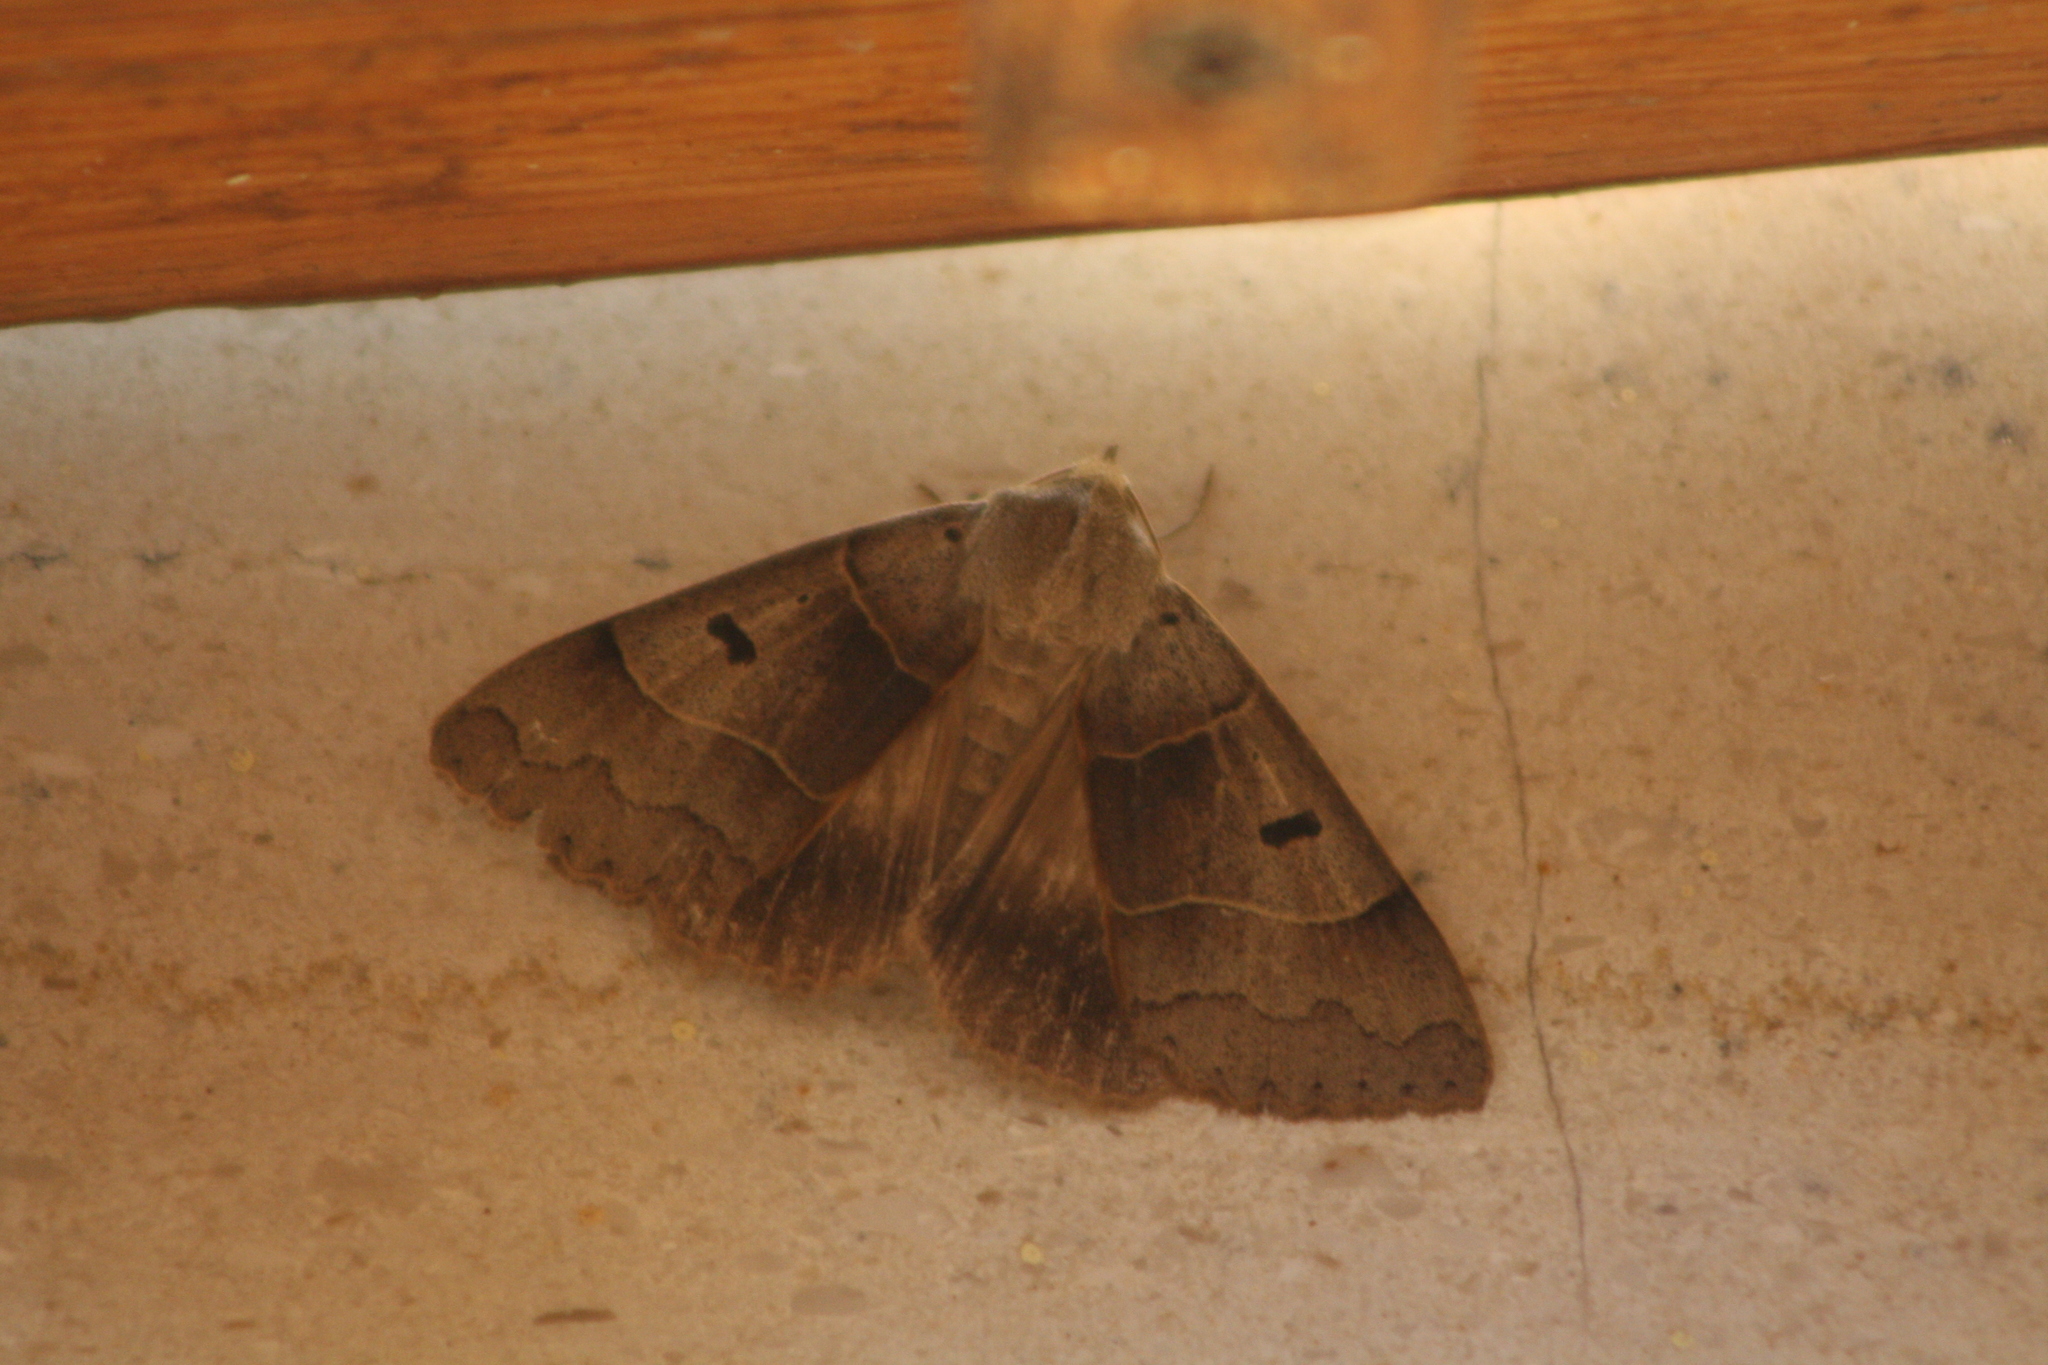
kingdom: Animalia
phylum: Arthropoda
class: Insecta
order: Lepidoptera
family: Erebidae
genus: Minucia
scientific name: Minucia lunaris
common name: Lunar double-stripe
